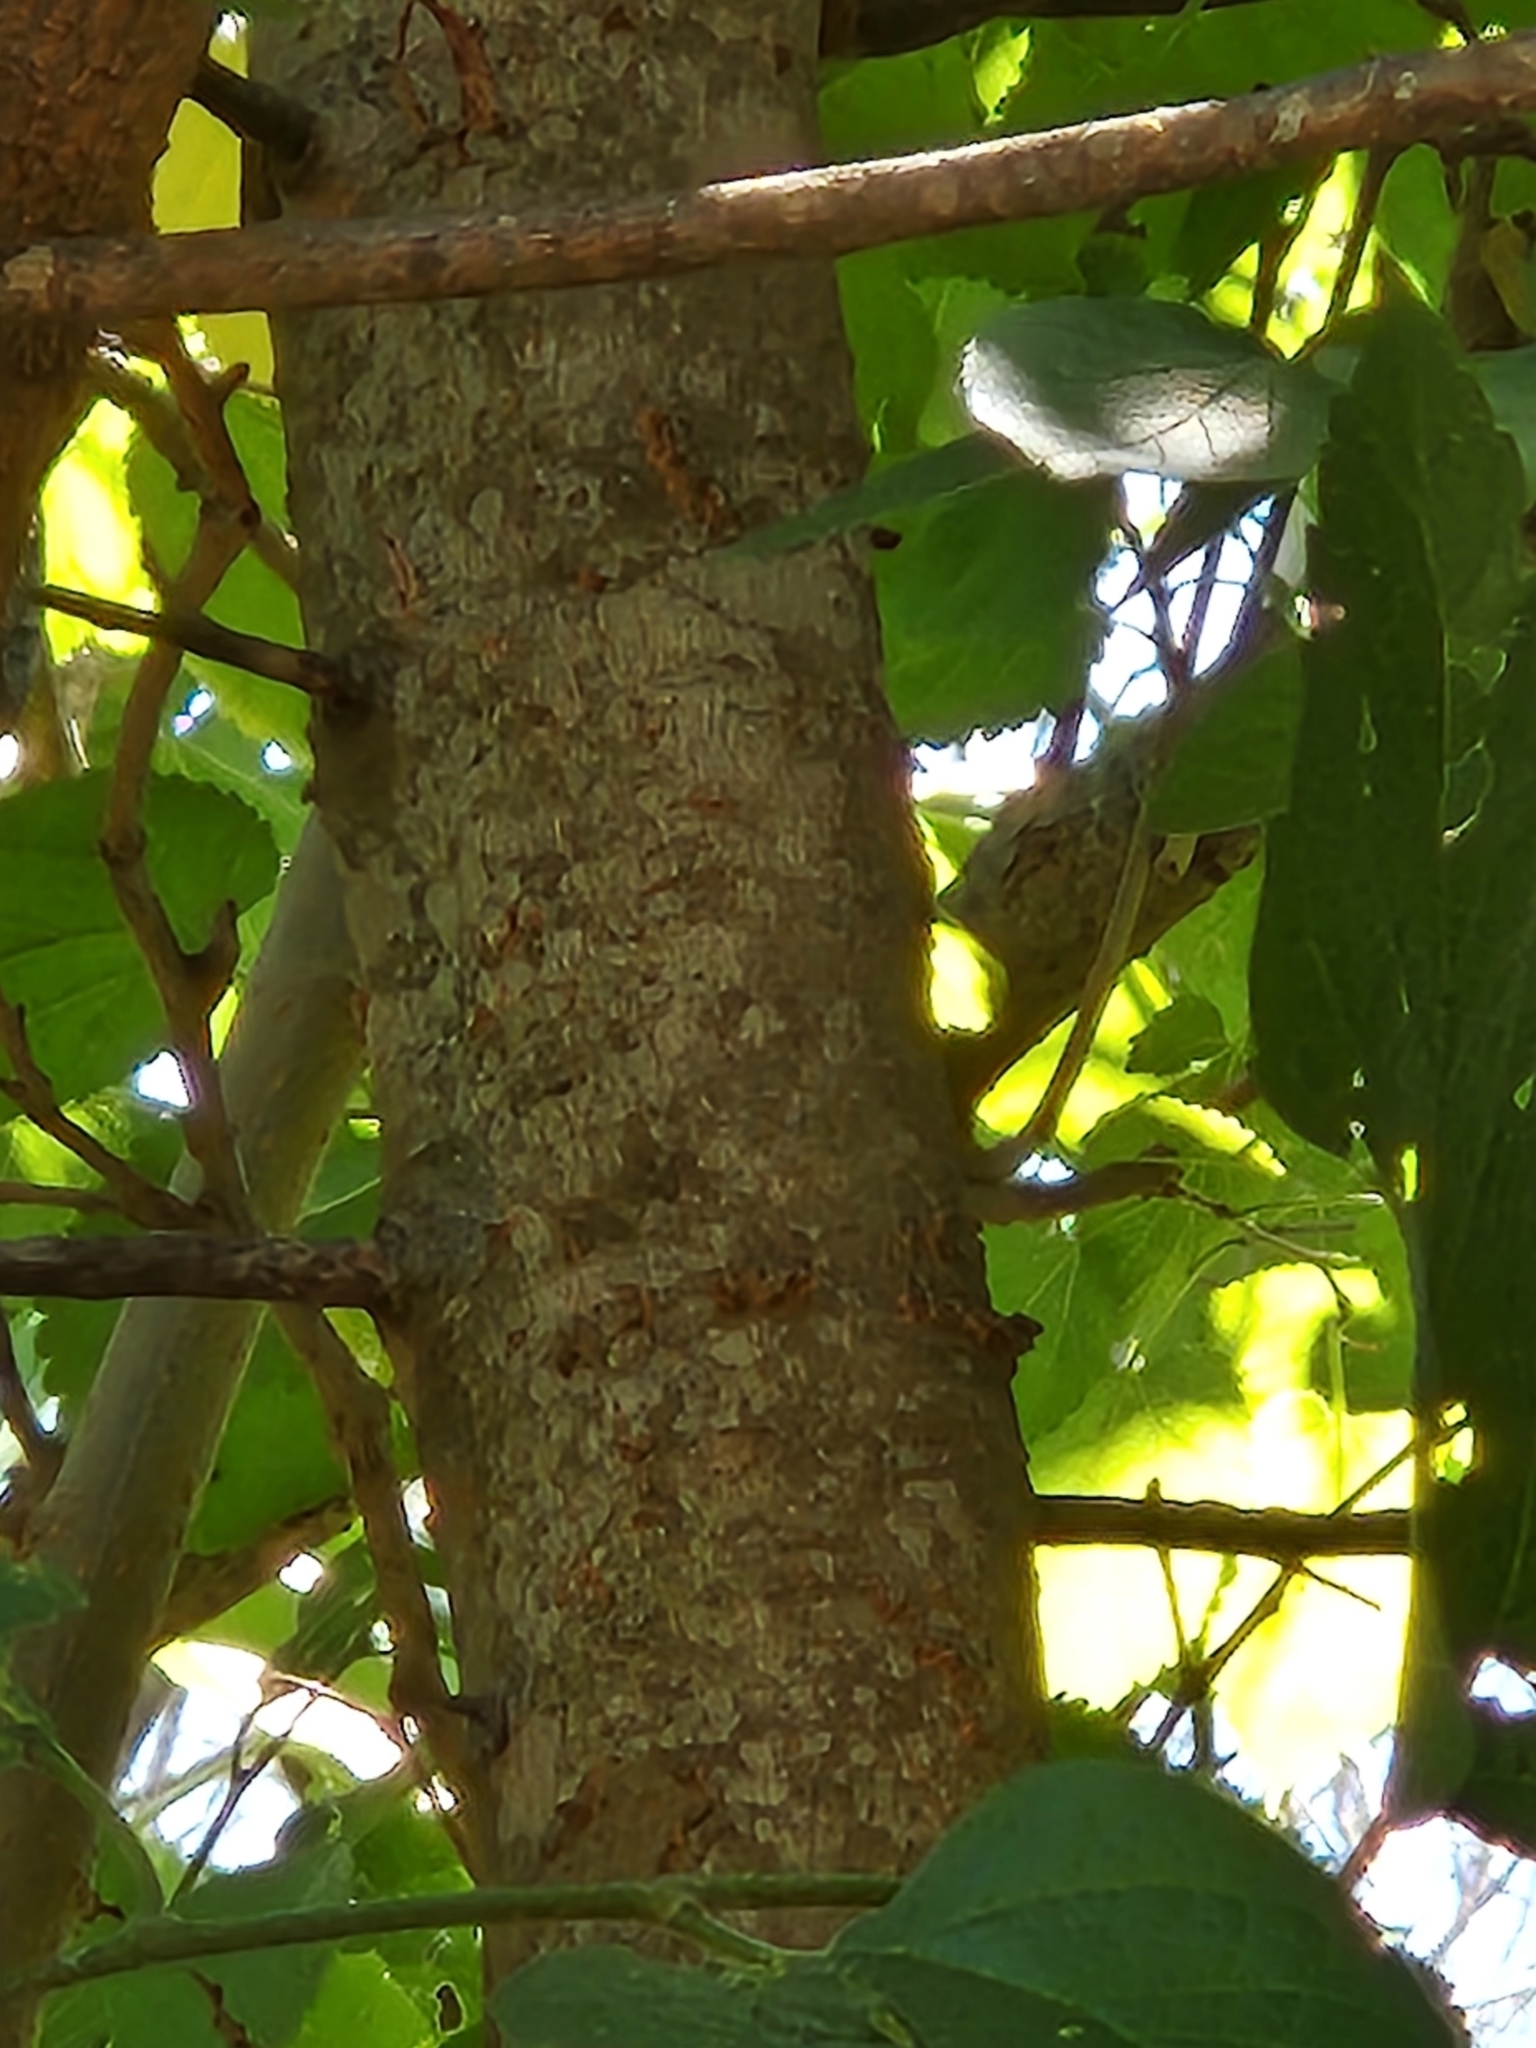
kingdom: Plantae
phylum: Tracheophyta
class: Magnoliopsida
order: Rosales
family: Moraceae
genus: Morus
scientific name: Morus microphylla
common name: Mexican mulberry
